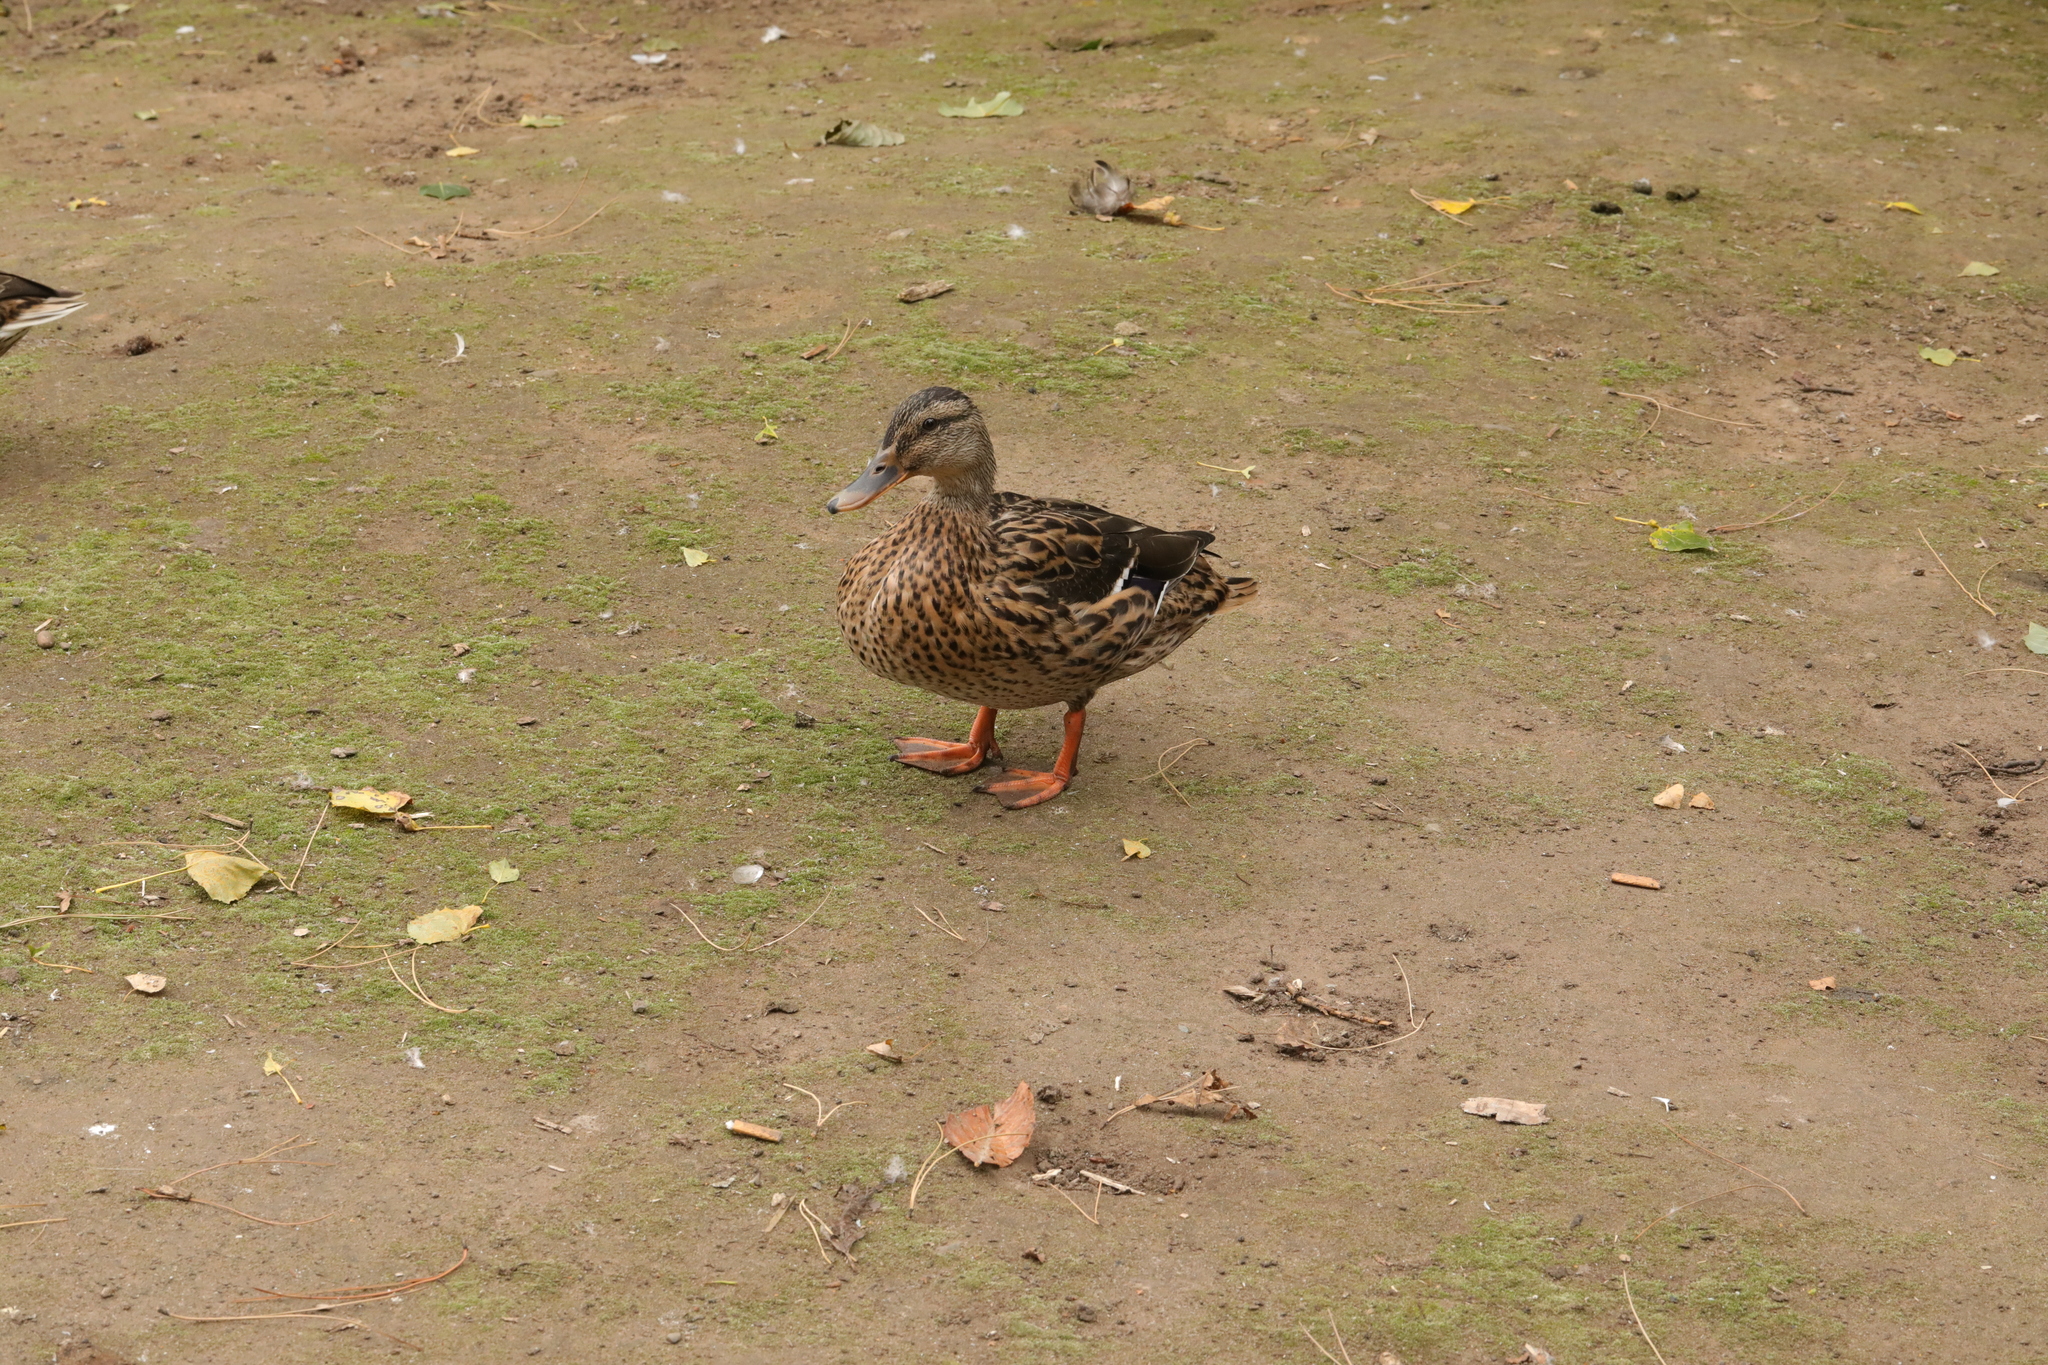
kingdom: Animalia
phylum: Chordata
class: Aves
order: Anseriformes
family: Anatidae
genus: Anas
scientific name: Anas platyrhynchos
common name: Mallard
